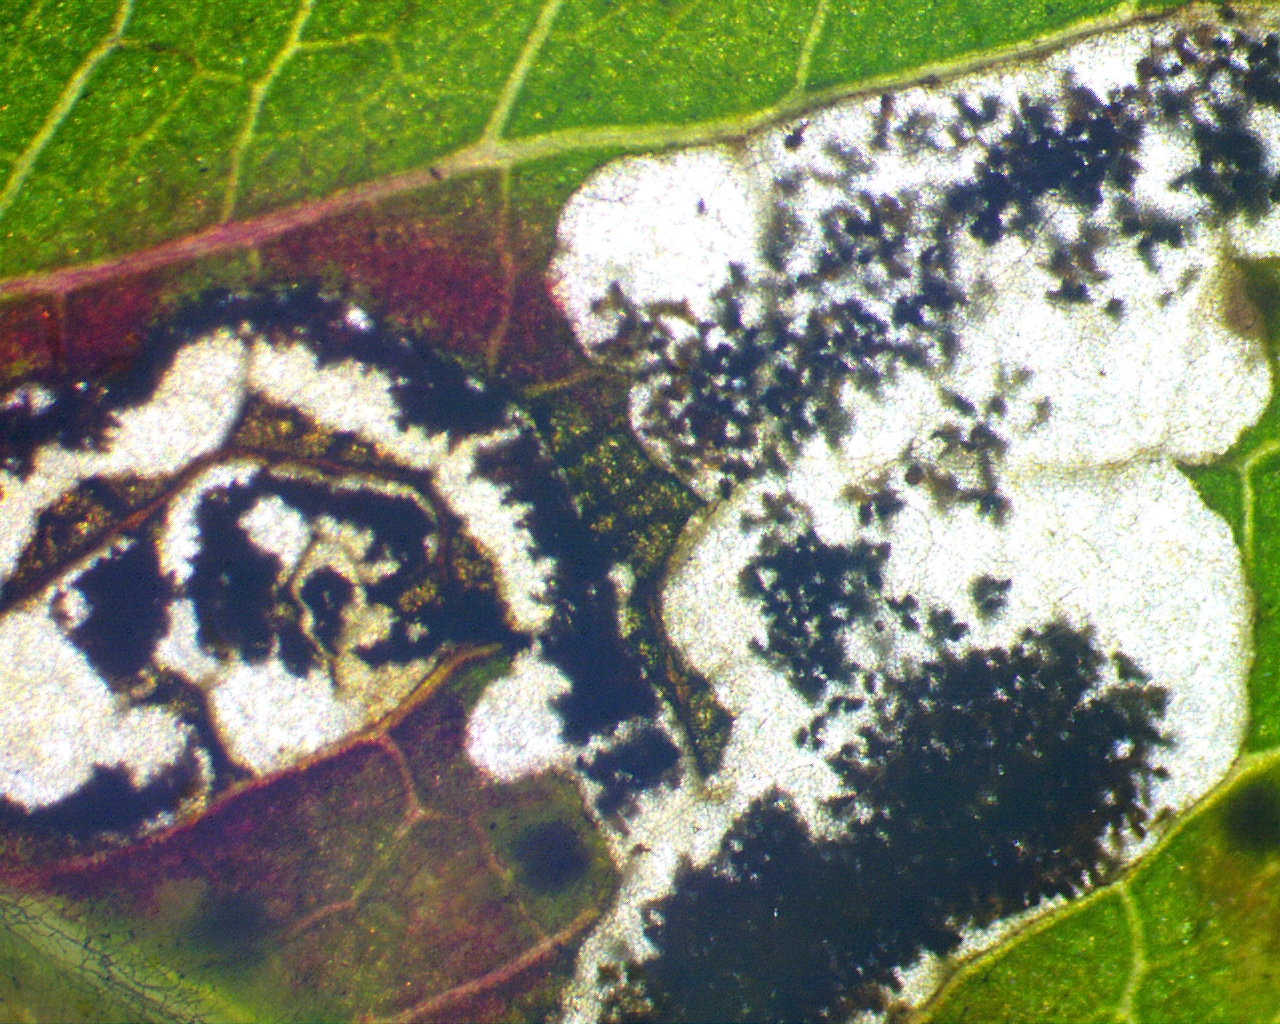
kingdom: Animalia
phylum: Arthropoda
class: Insecta
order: Lepidoptera
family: Heliozelidae
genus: Coptodisca
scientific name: Coptodisca splendoriferella
